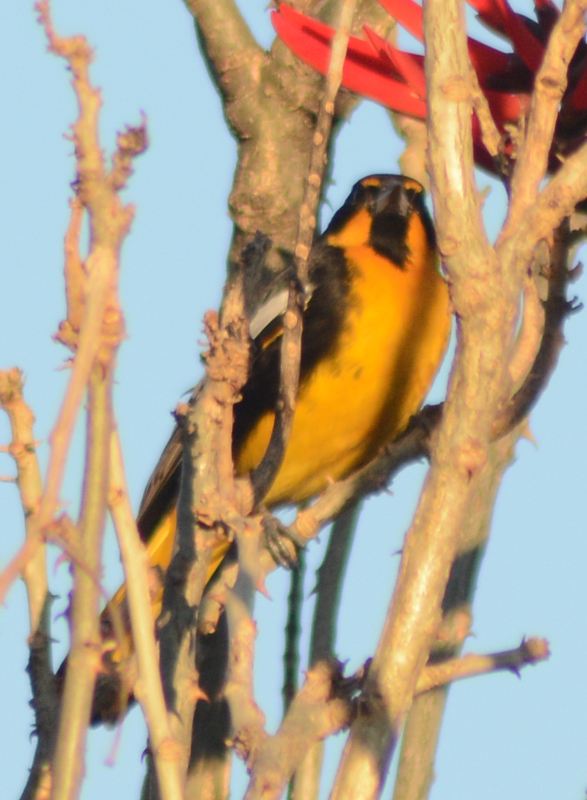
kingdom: Animalia
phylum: Chordata
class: Aves
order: Passeriformes
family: Icteridae
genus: Icterus
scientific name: Icterus abeillei
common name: Black-backed oriole
